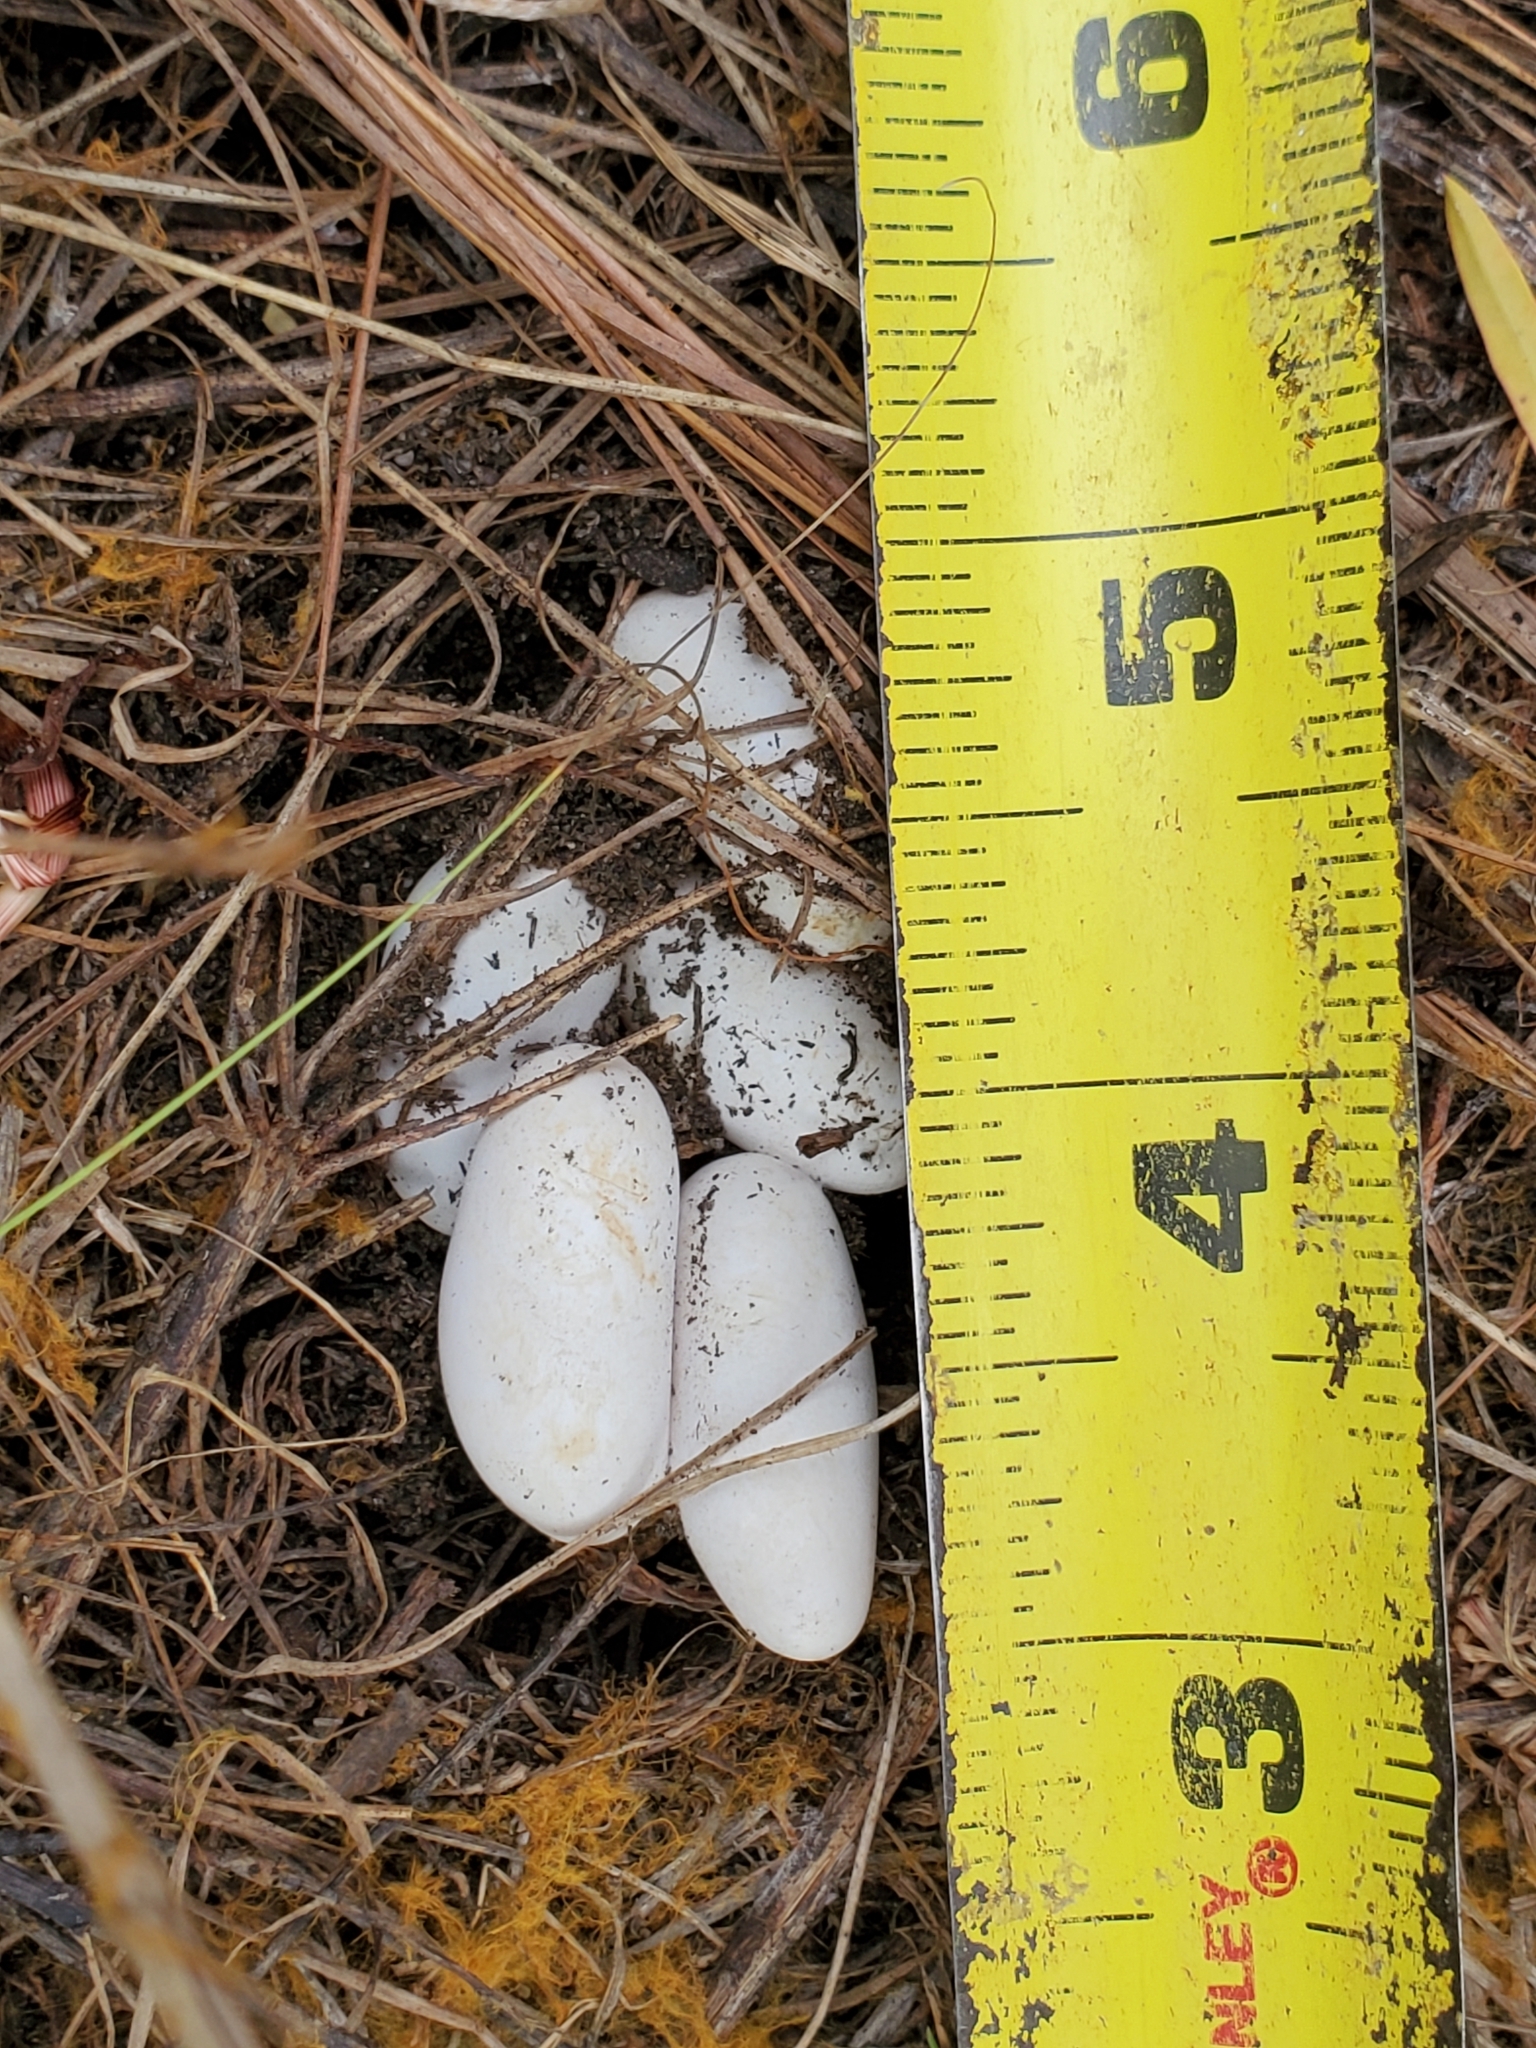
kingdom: Animalia
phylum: Chordata
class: Squamata
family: Scincidae
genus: Plestiodon
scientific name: Plestiodon septentrionalis
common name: Northern prairie skink
